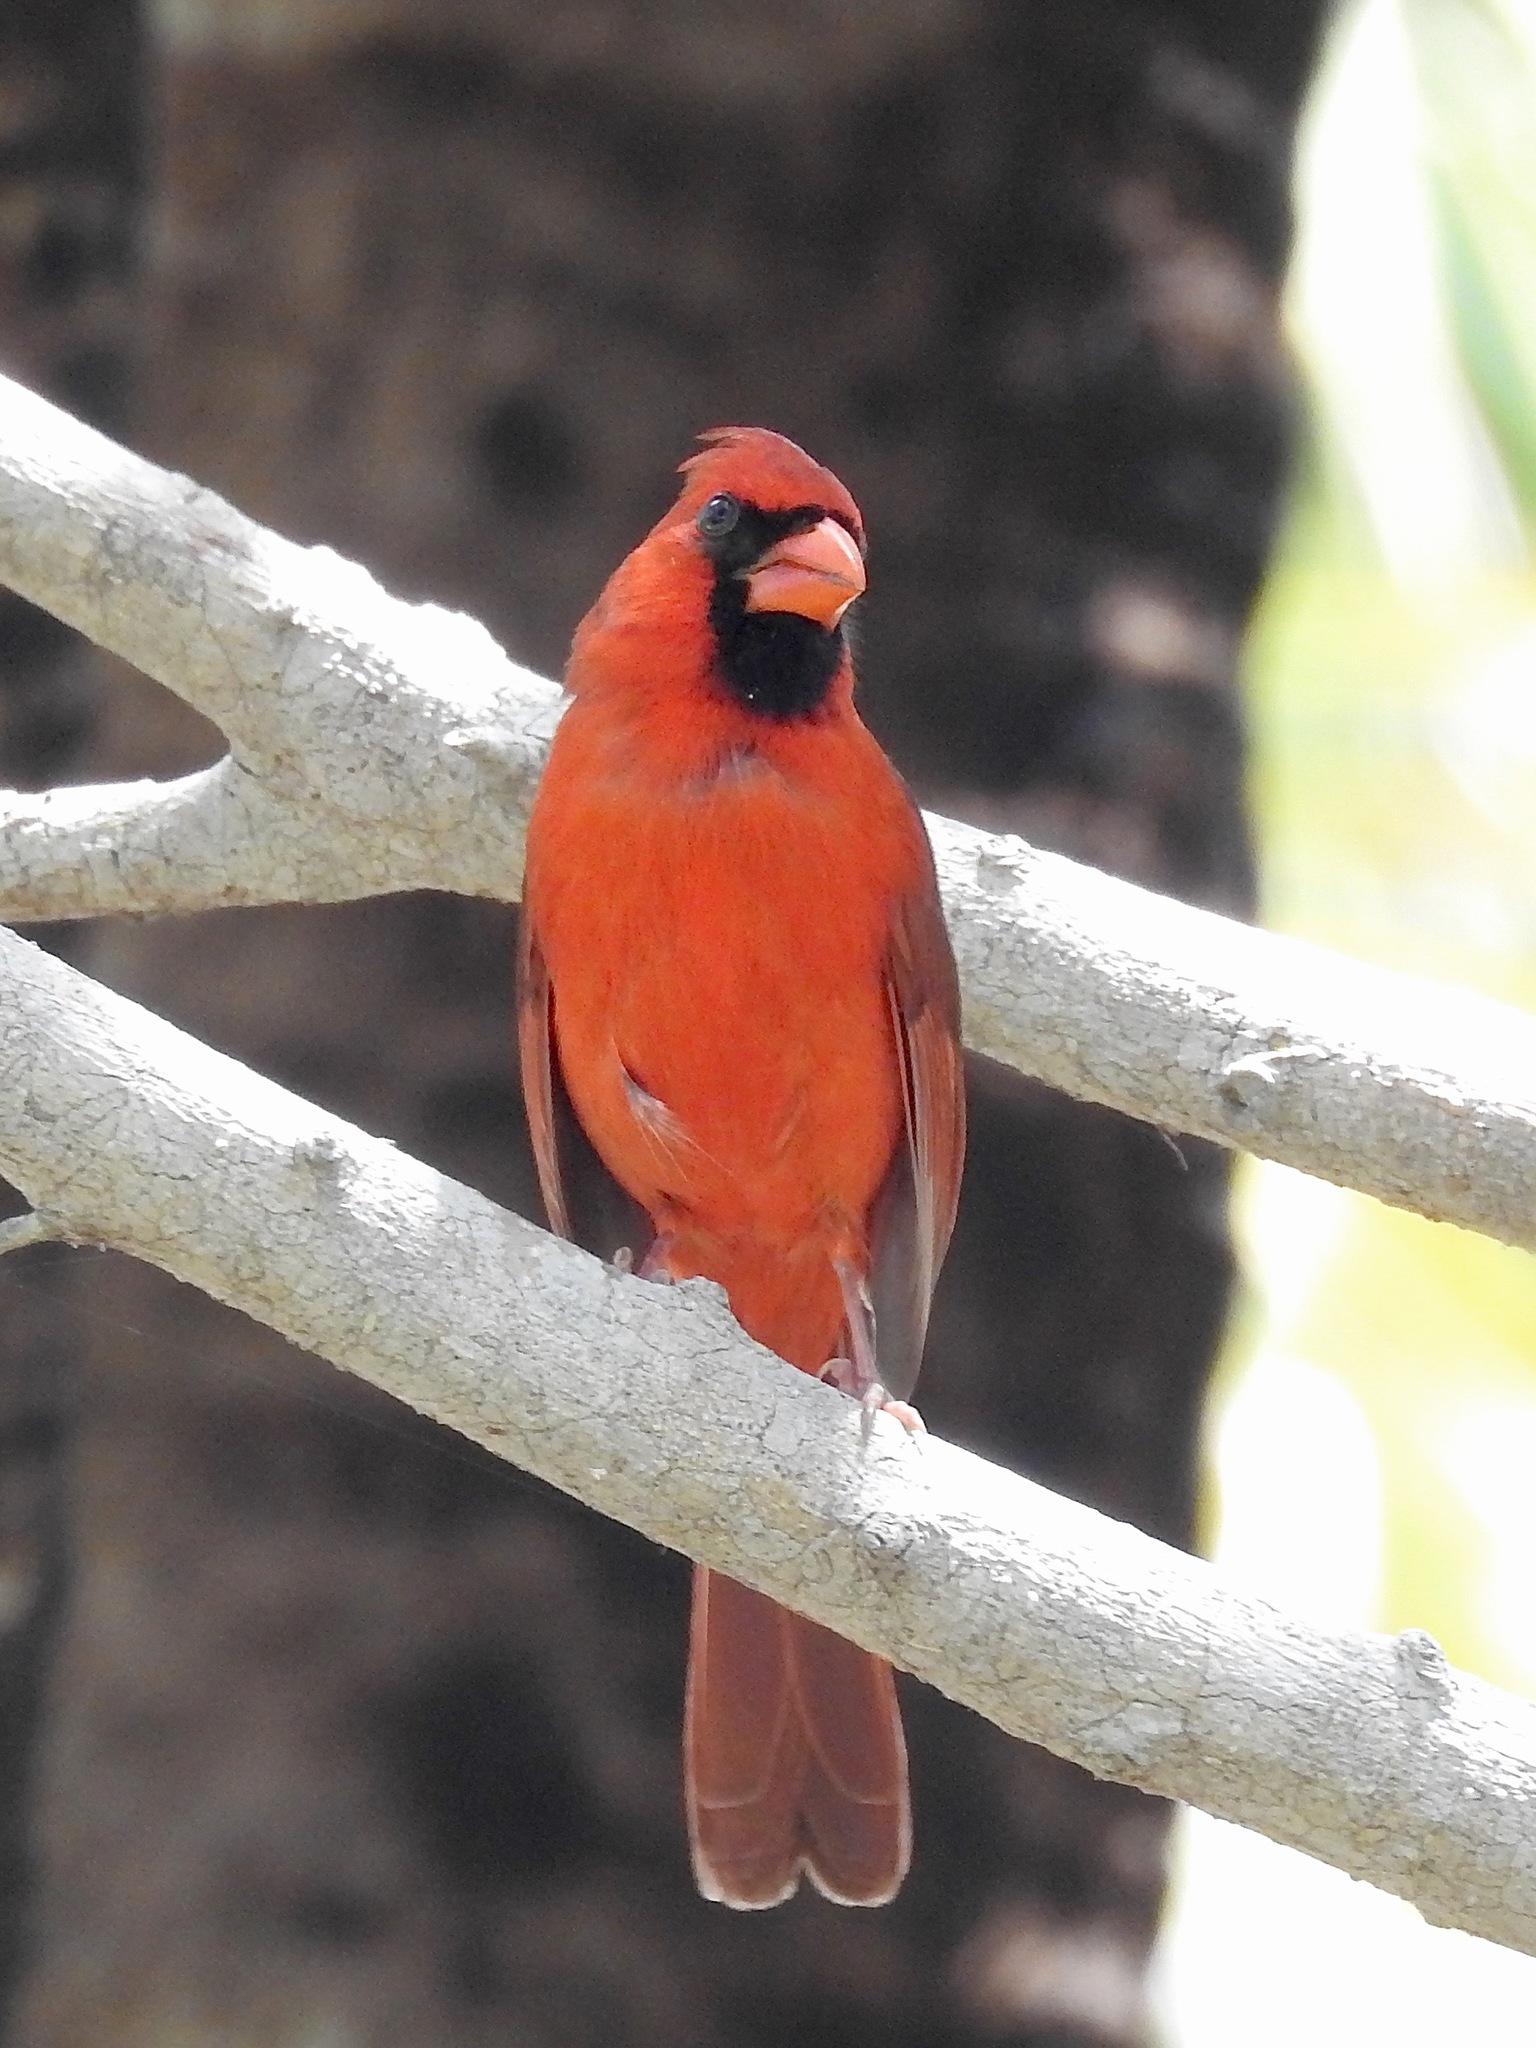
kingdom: Animalia
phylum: Chordata
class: Aves
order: Passeriformes
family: Cardinalidae
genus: Cardinalis
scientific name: Cardinalis cardinalis
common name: Northern cardinal
